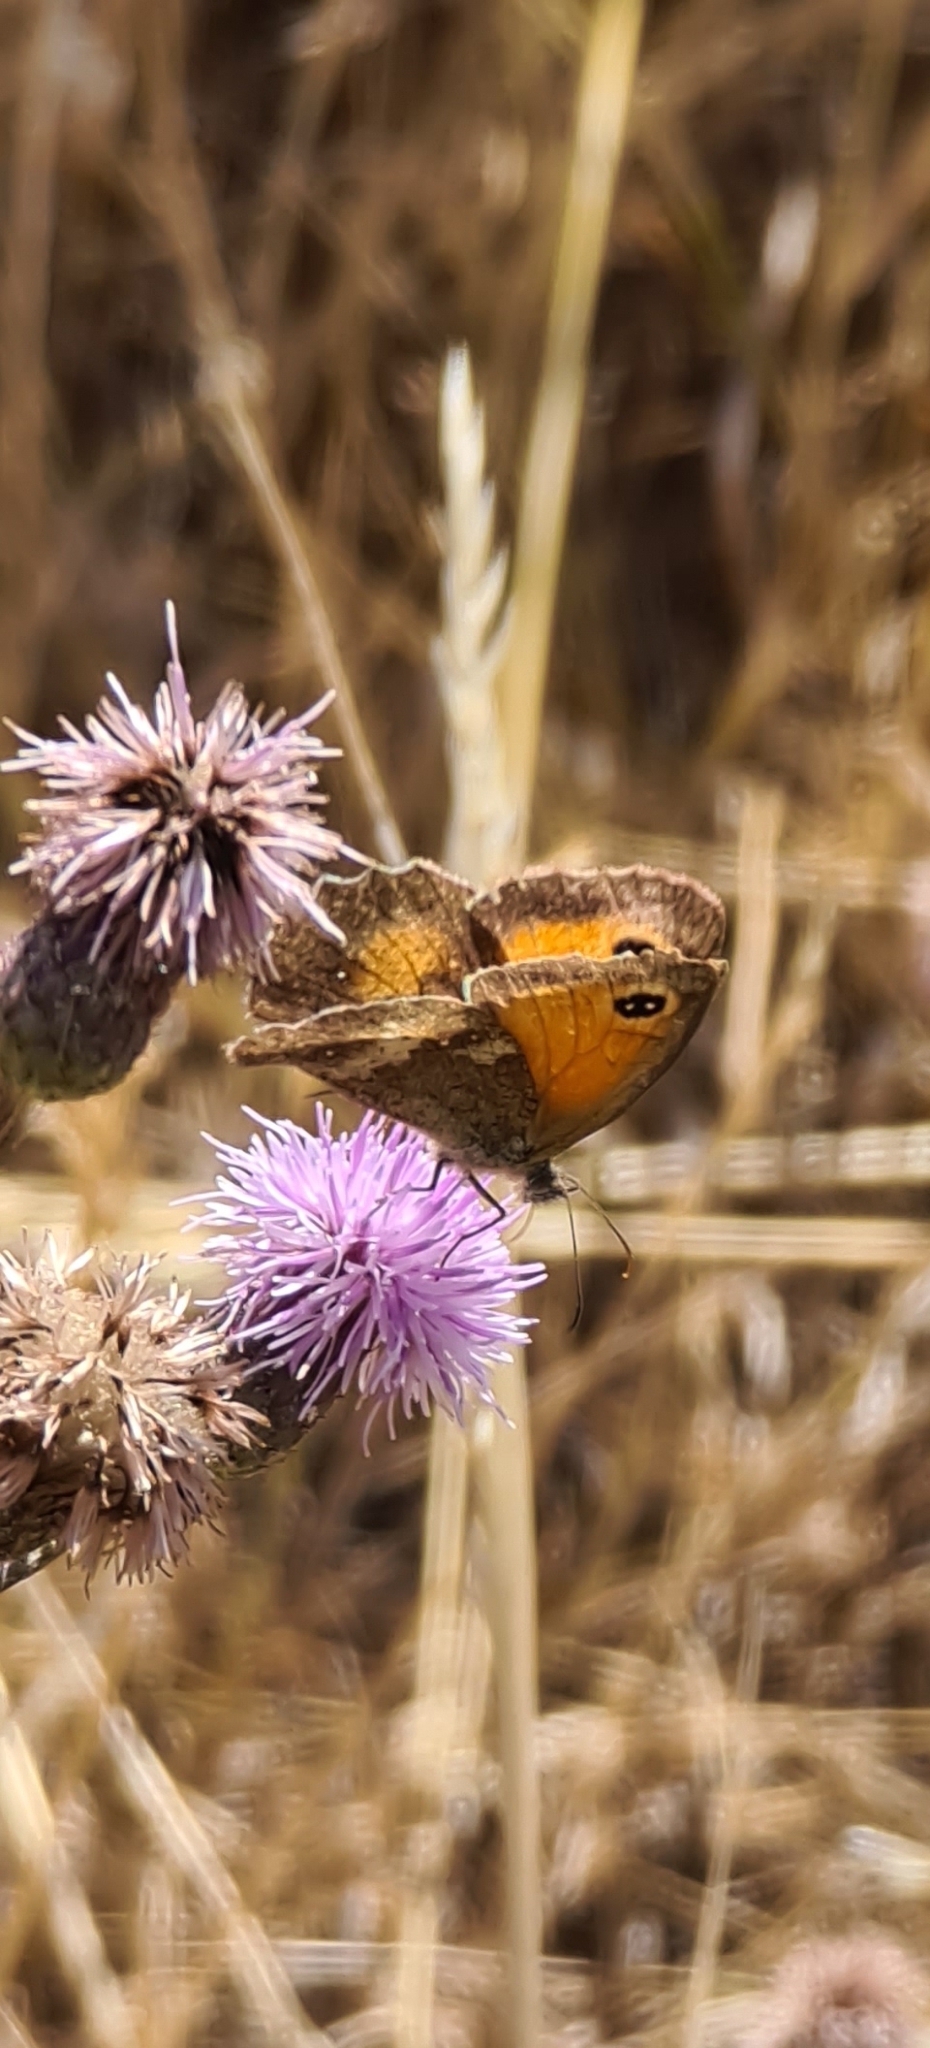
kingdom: Animalia
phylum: Arthropoda
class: Insecta
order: Lepidoptera
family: Nymphalidae
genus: Pyronia
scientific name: Pyronia tithonus
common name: Gatekeeper
